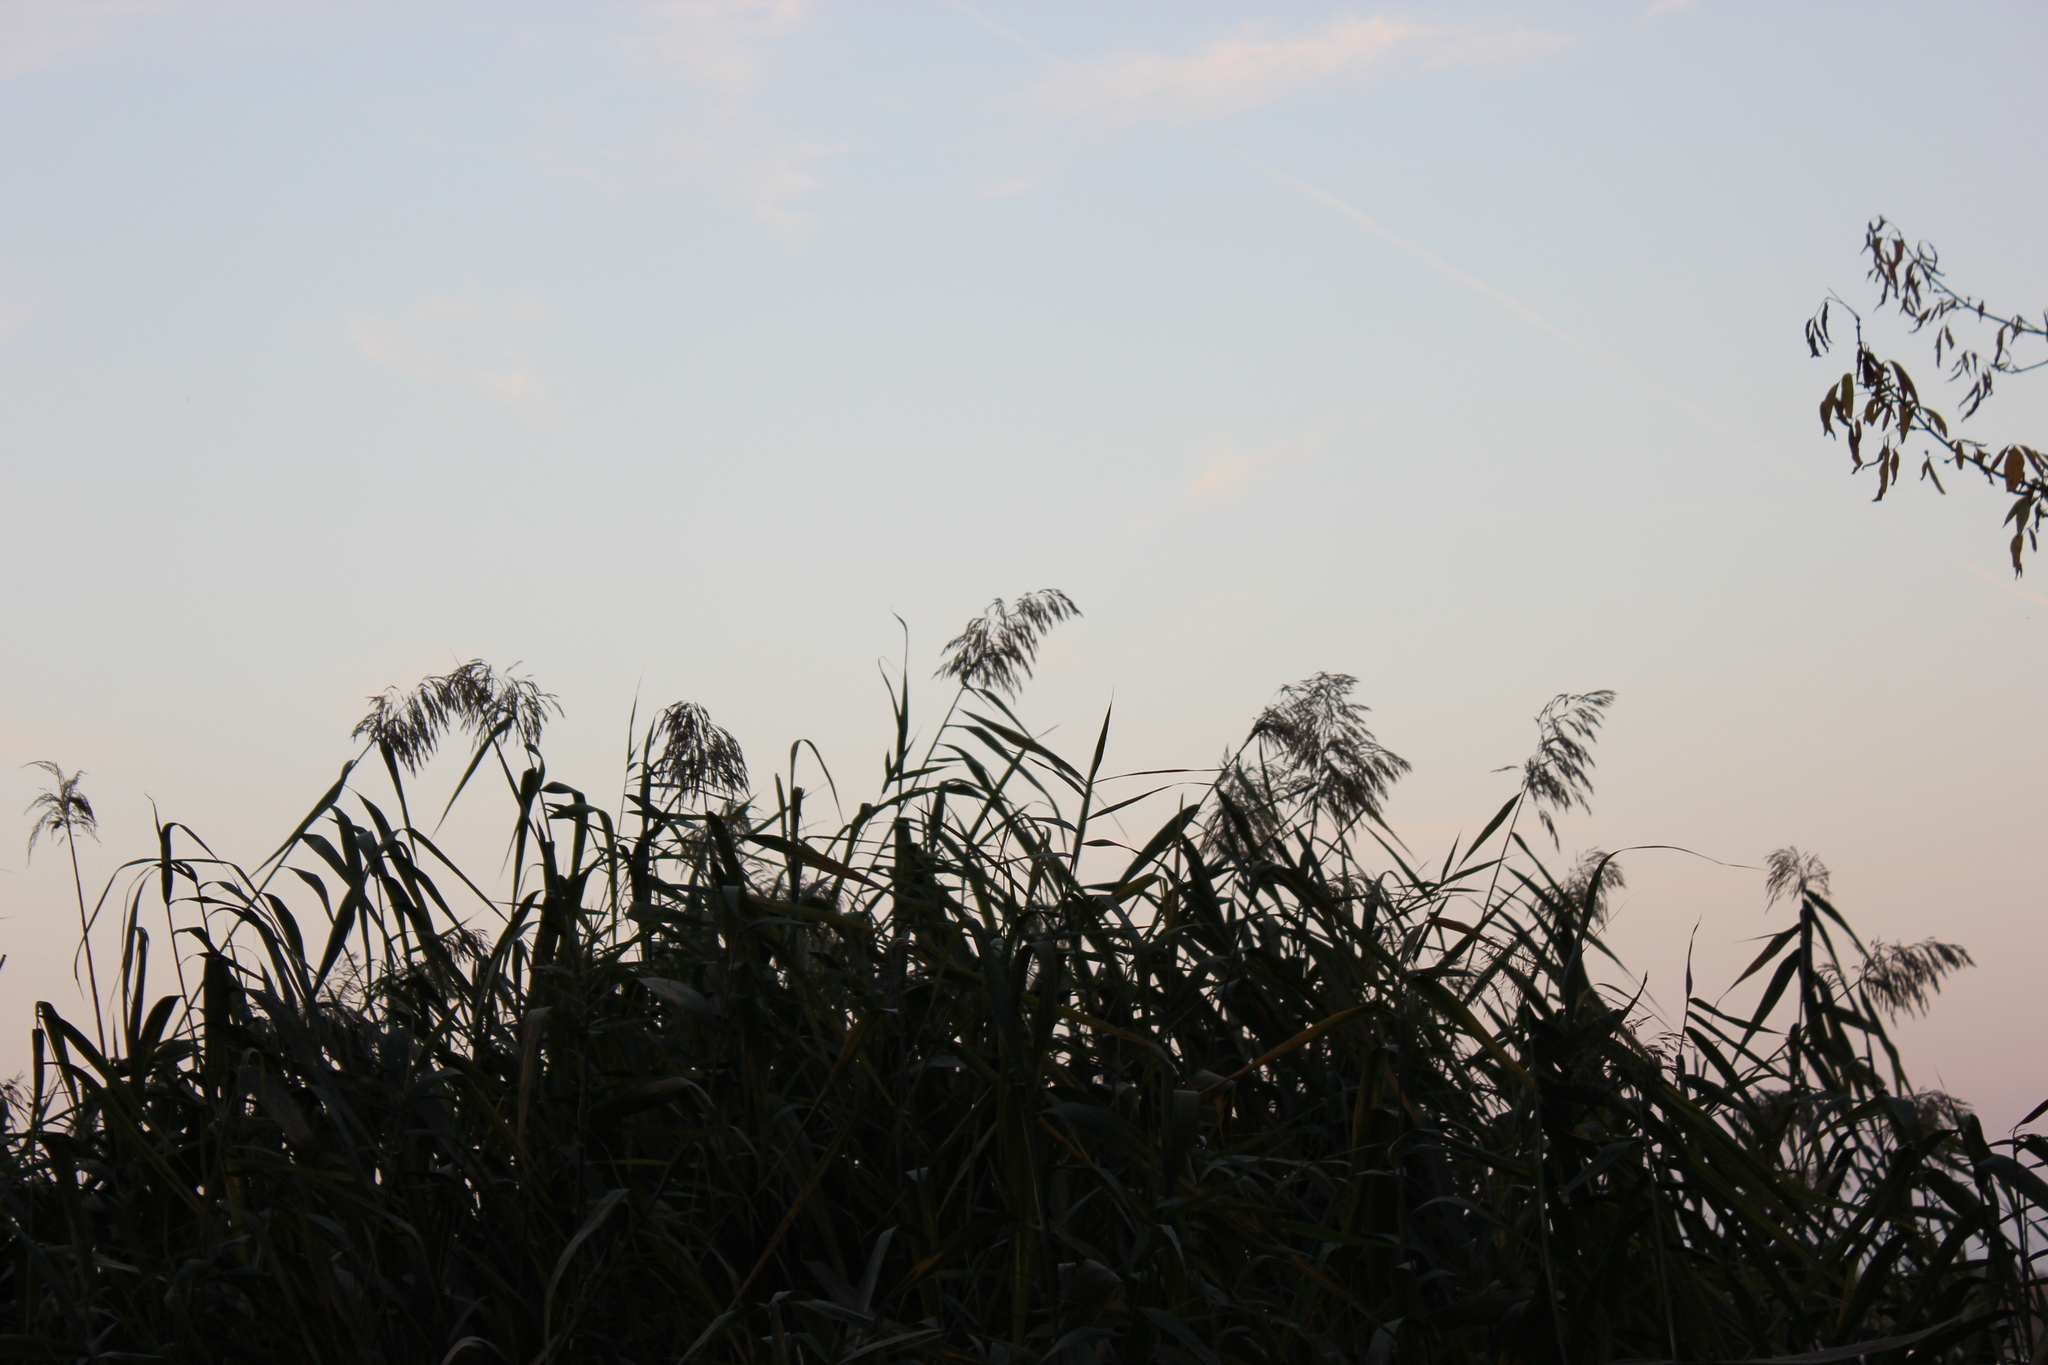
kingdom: Plantae
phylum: Tracheophyta
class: Liliopsida
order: Poales
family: Poaceae
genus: Phragmites
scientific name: Phragmites australis
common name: Common reed
